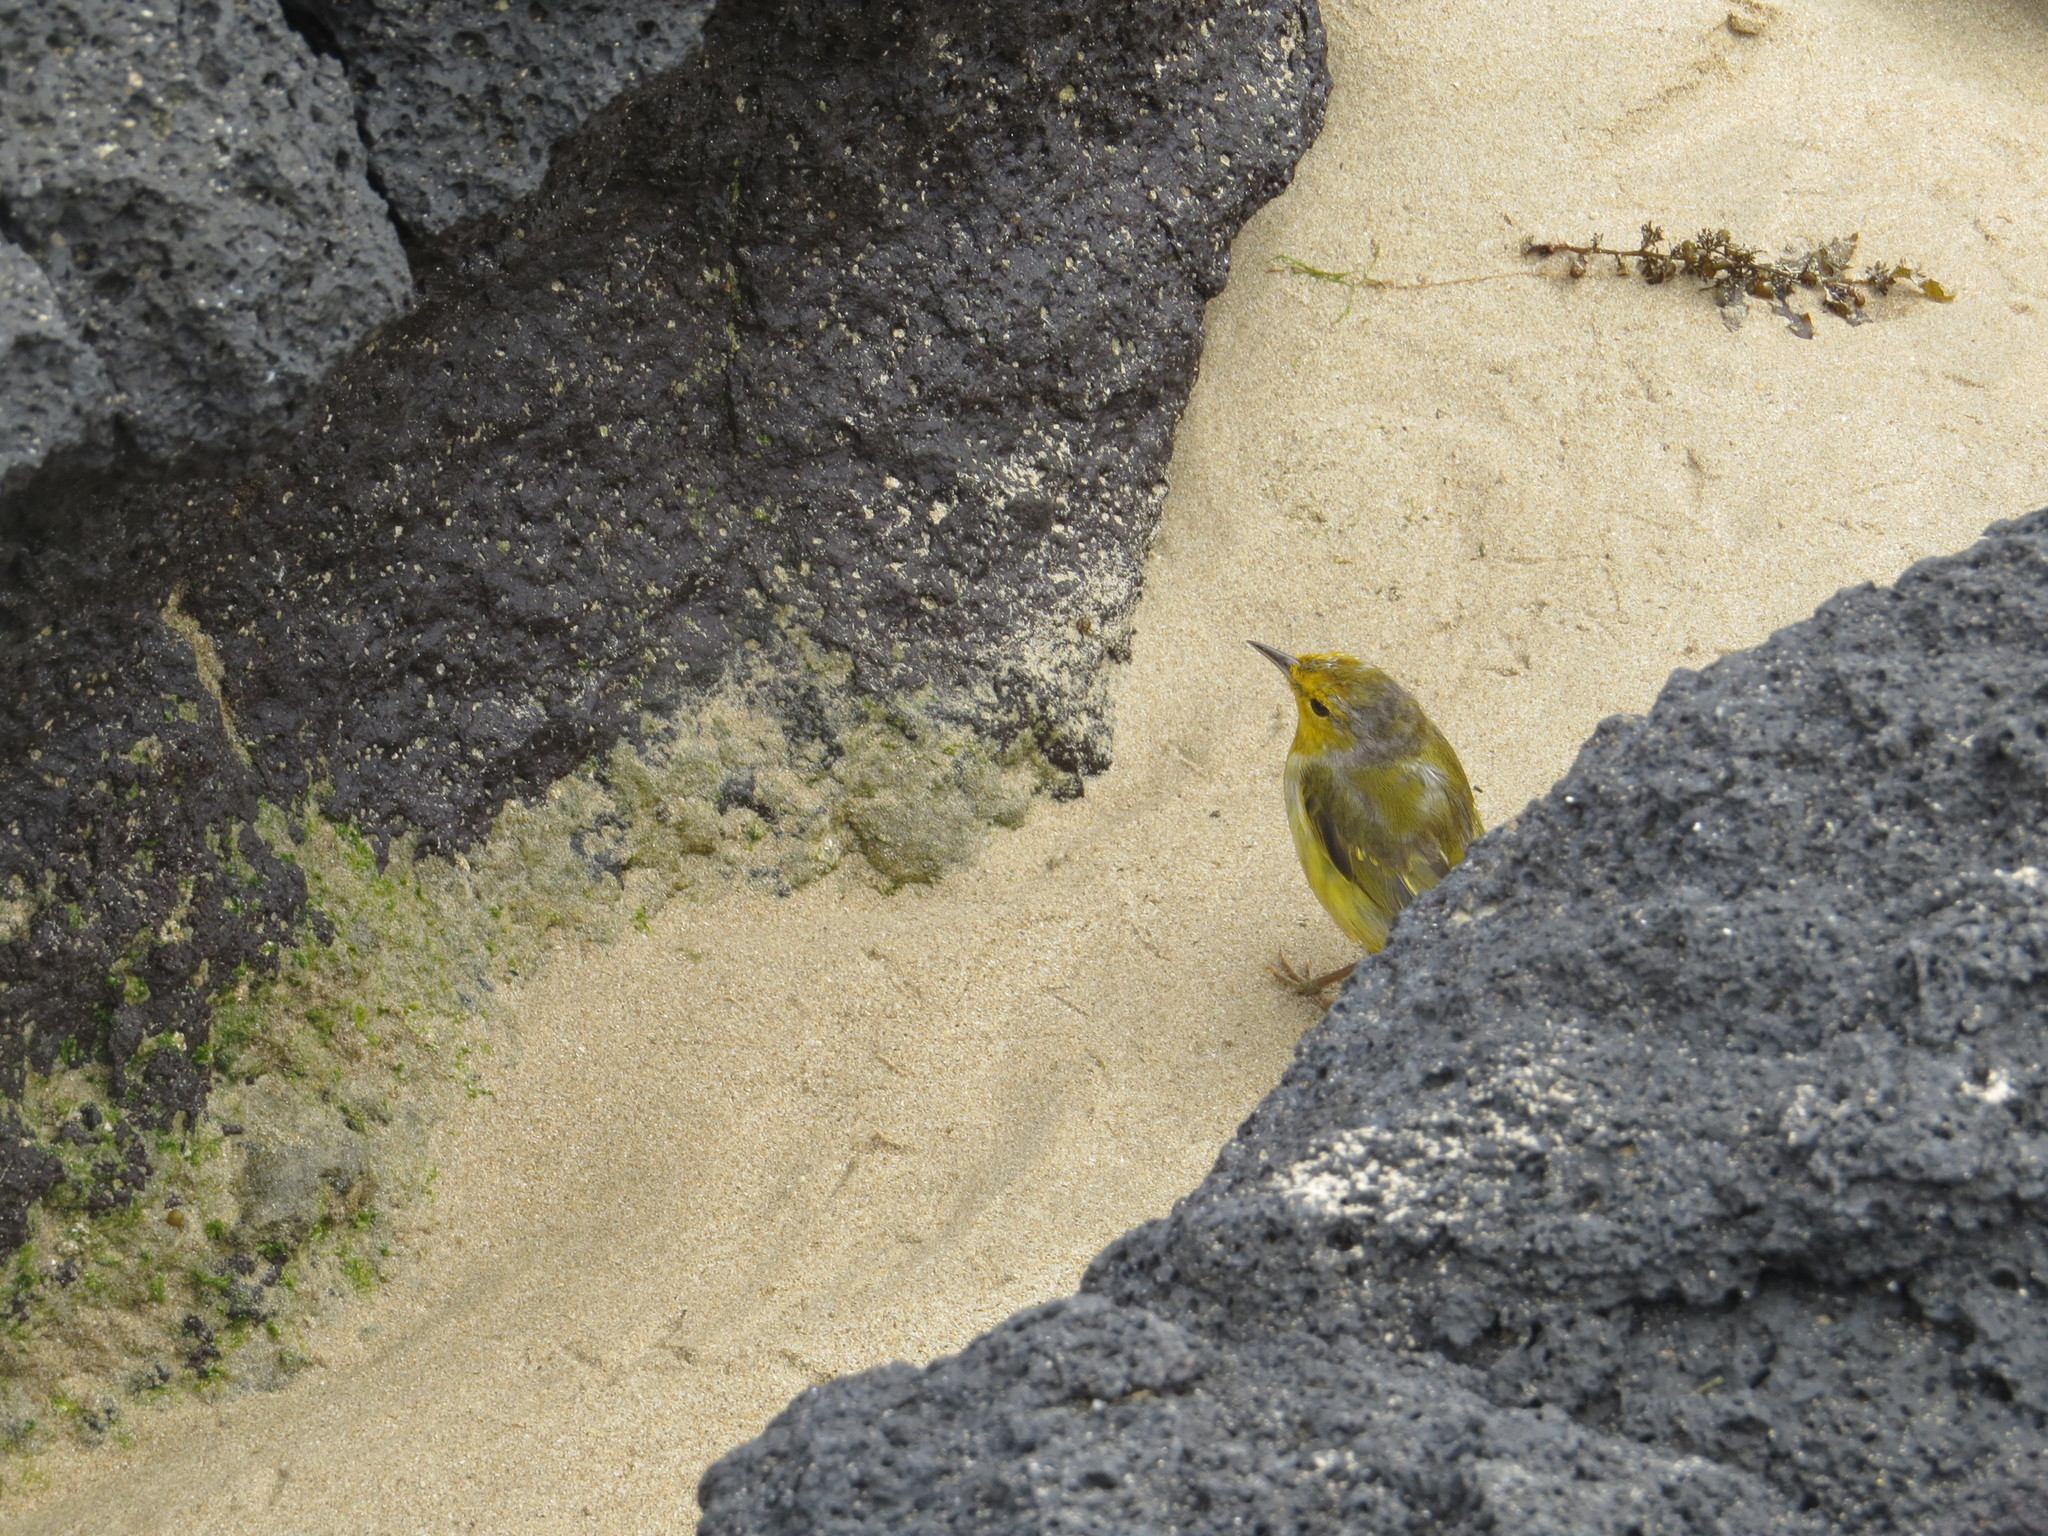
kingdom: Animalia
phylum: Chordata
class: Aves
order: Passeriformes
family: Parulidae
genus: Setophaga
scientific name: Setophaga petechia
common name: Yellow warbler
